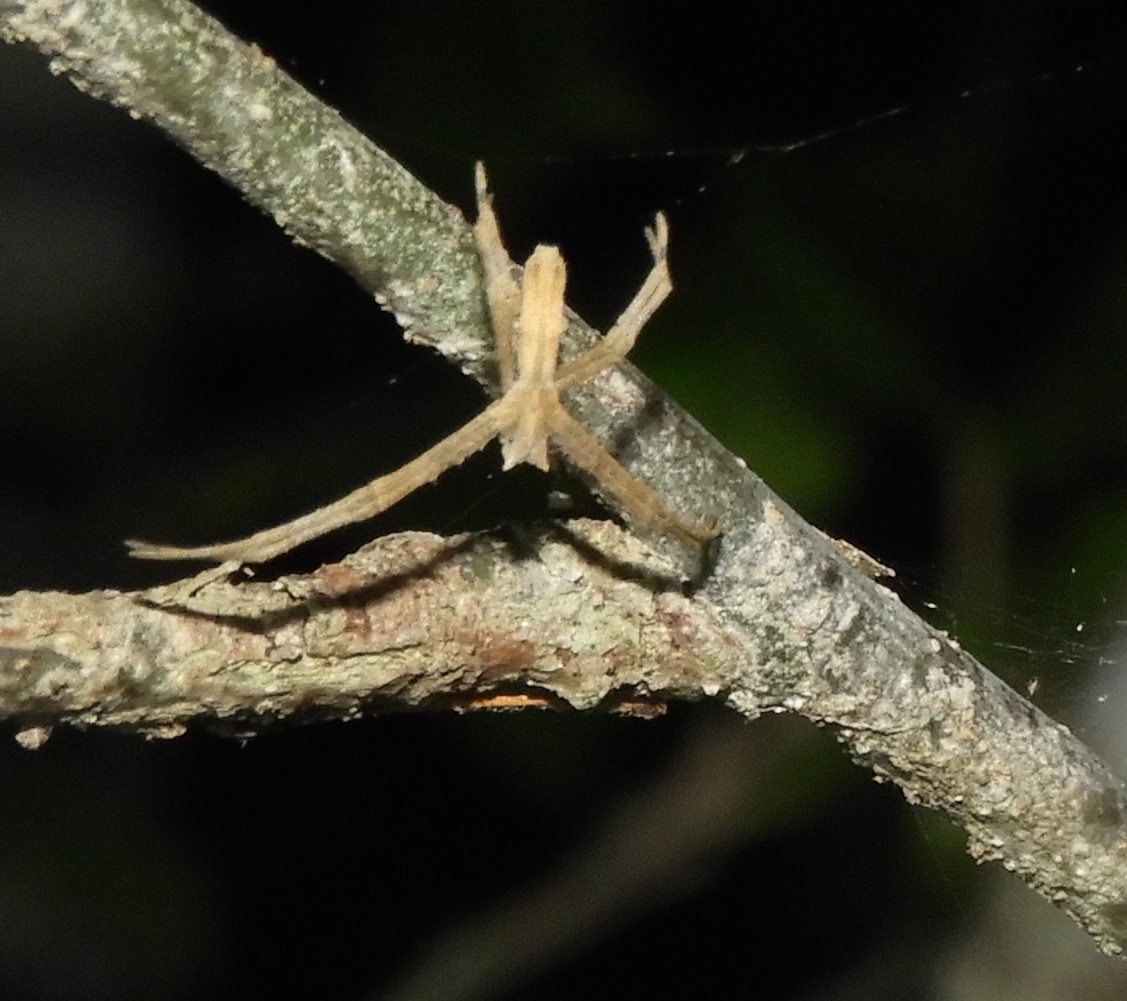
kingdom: Animalia
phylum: Arthropoda
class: Arachnida
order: Araneae
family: Deinopidae
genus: Deinopis
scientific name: Deinopis aurita
